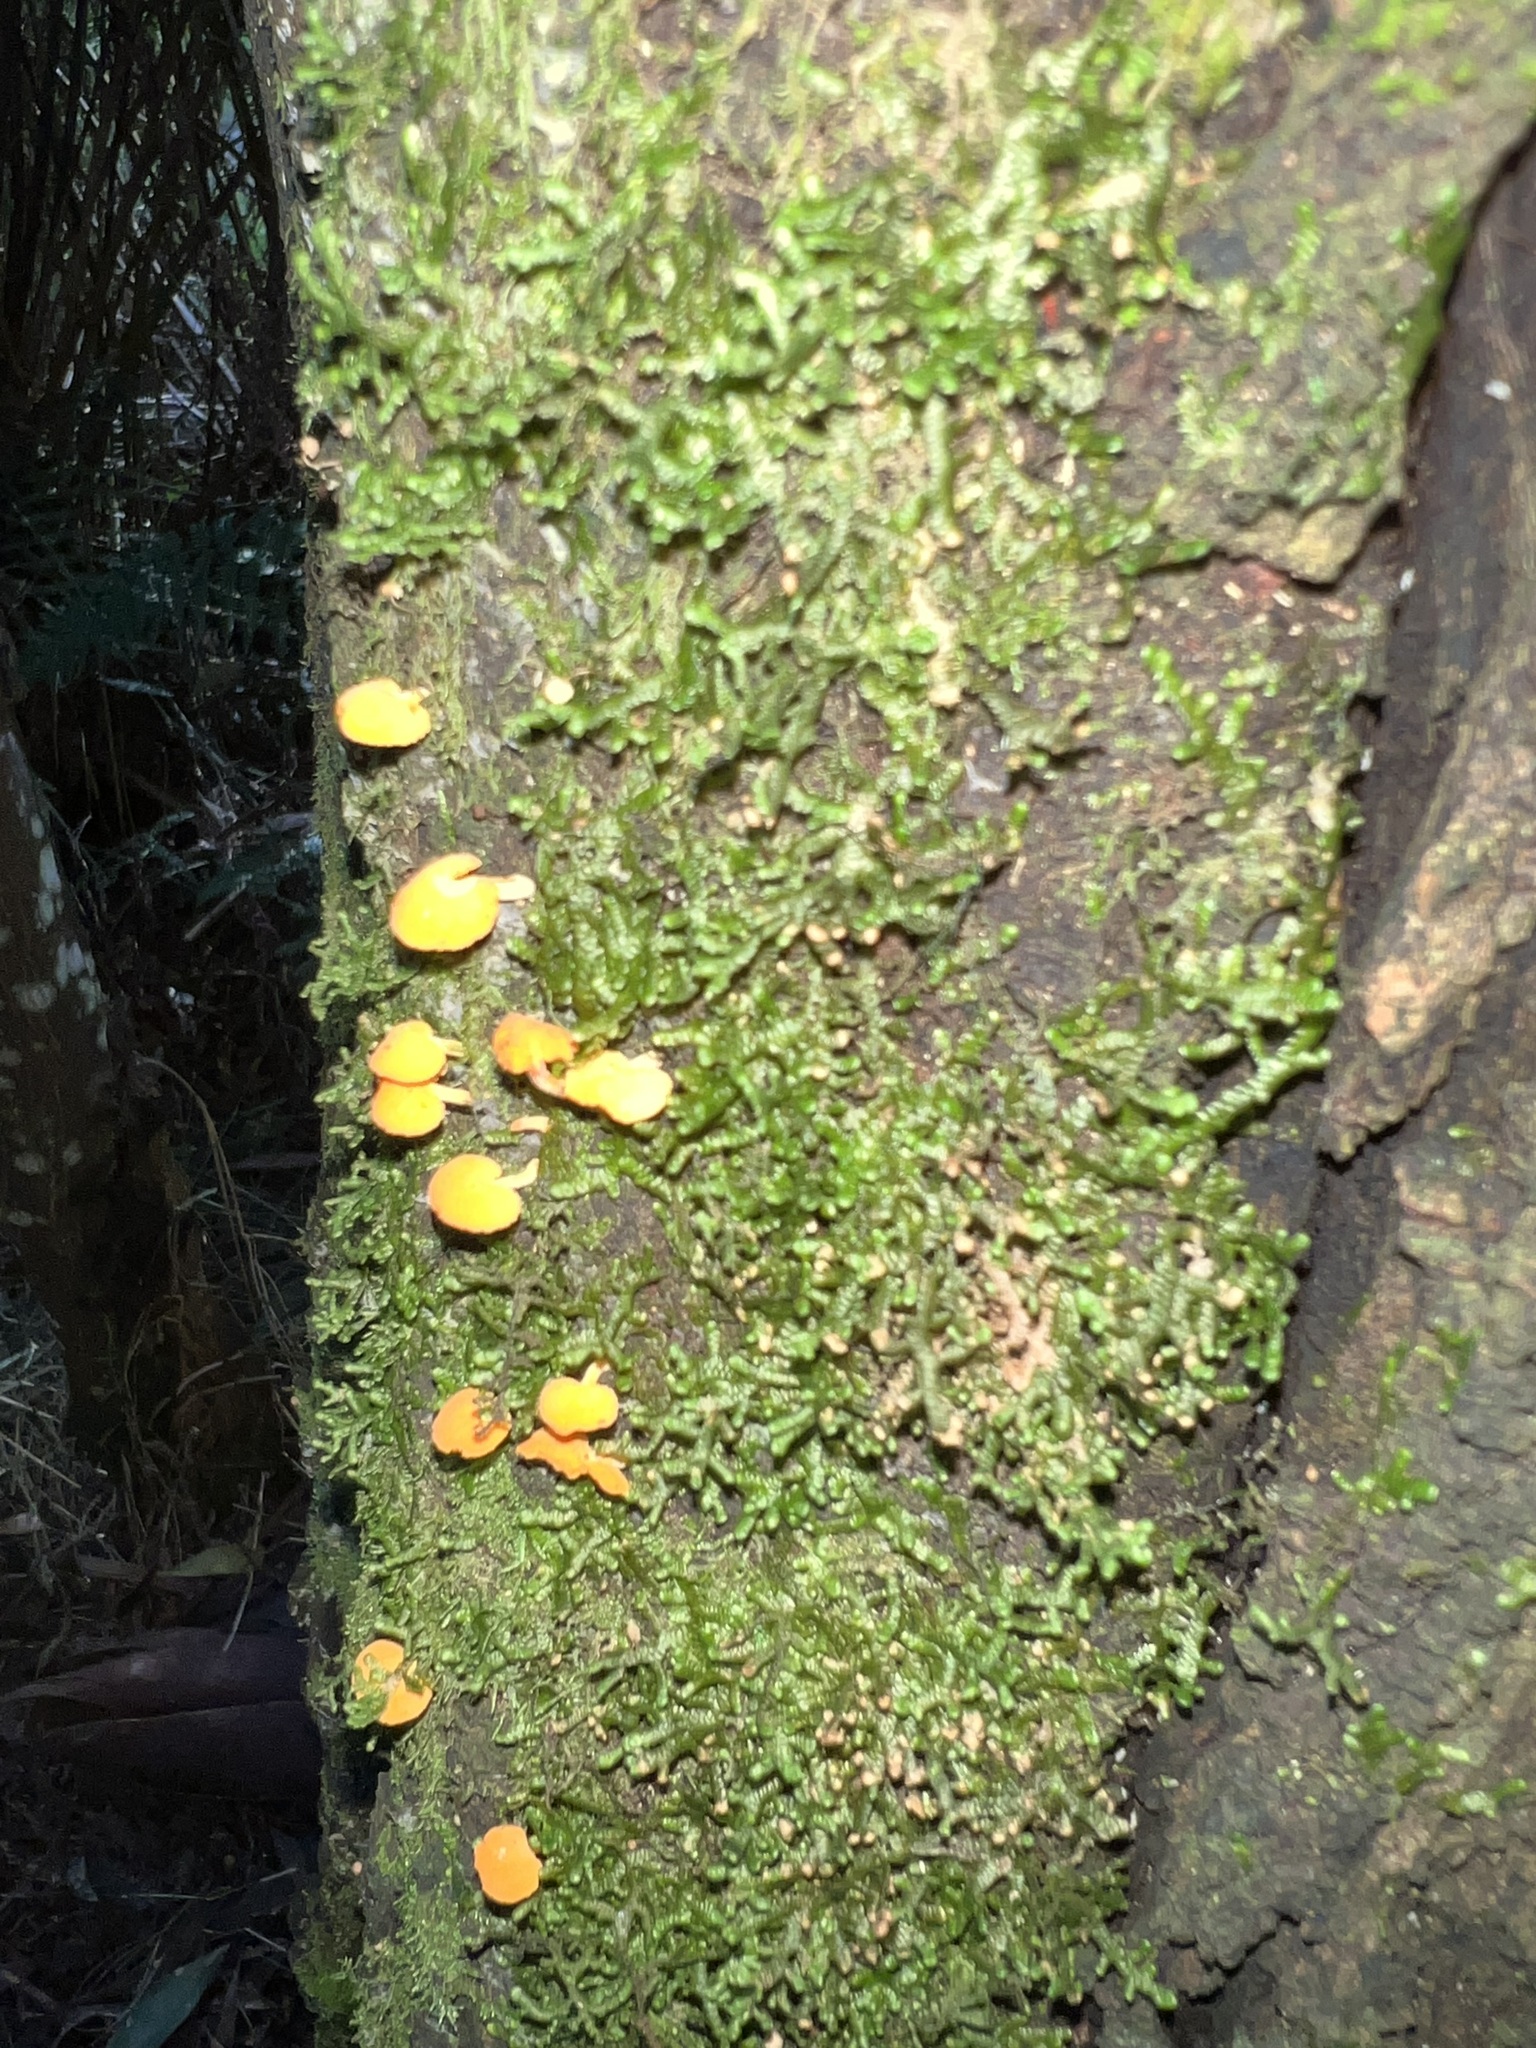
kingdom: Fungi
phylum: Basidiomycota
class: Agaricomycetes
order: Agaricales
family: Mycenaceae
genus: Favolaschia
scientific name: Favolaschia claudopus
